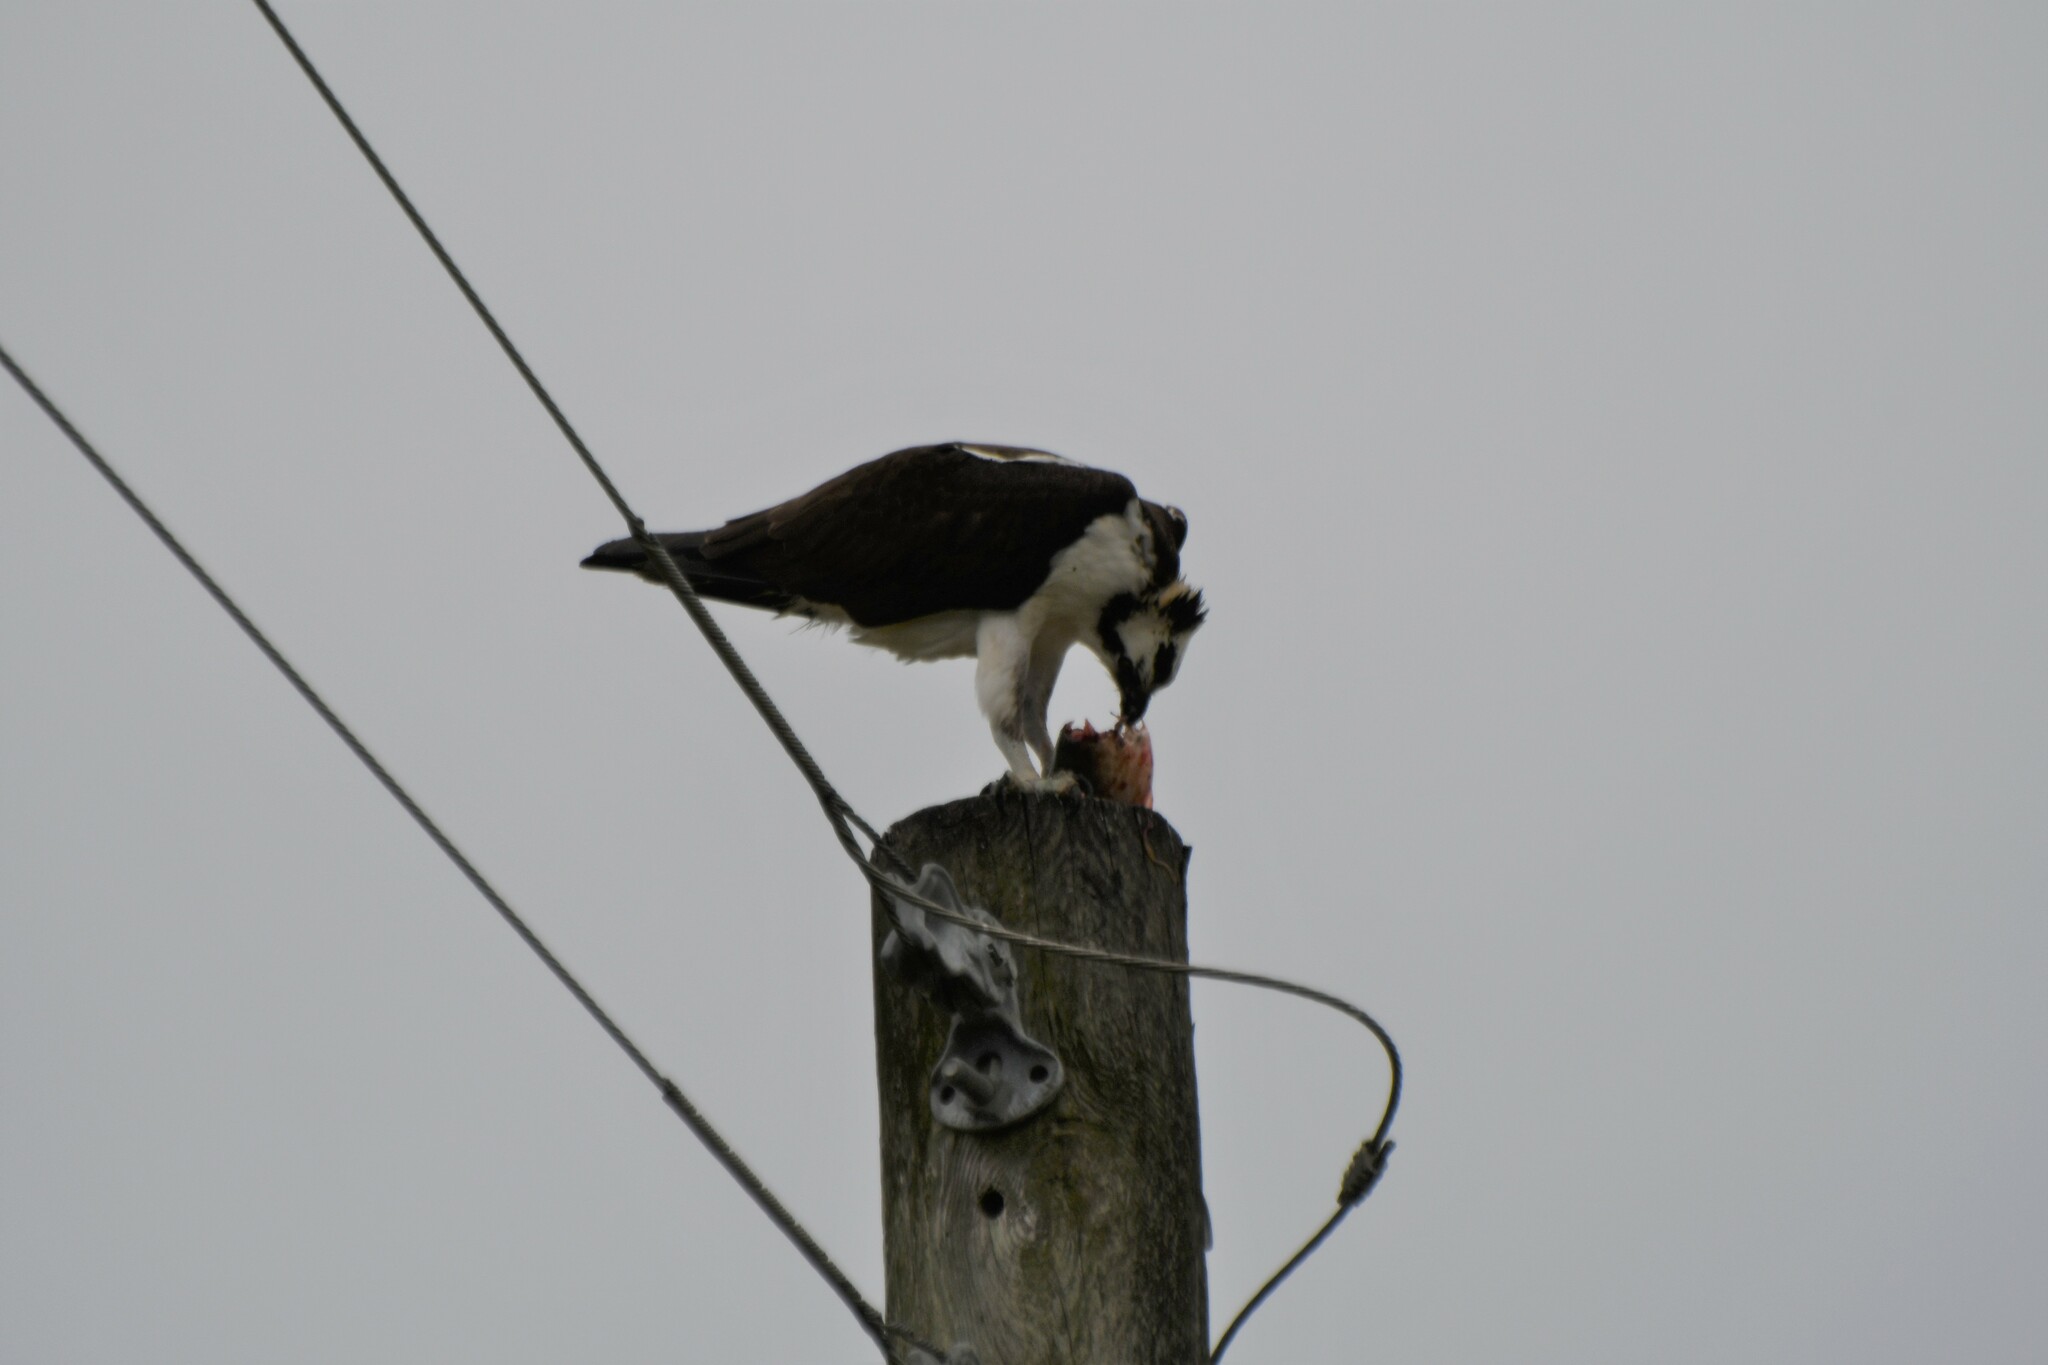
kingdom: Animalia
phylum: Chordata
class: Aves
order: Accipitriformes
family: Pandionidae
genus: Pandion
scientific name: Pandion haliaetus
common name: Osprey
